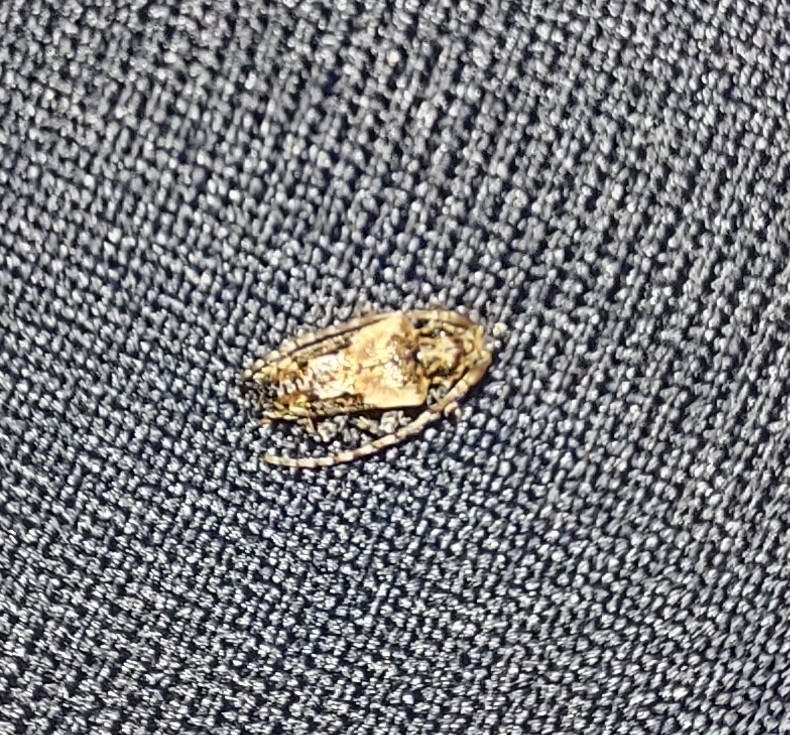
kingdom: Animalia
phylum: Arthropoda
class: Insecta
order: Coleoptera
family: Cerambycidae
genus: Pogonocherus
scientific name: Pogonocherus hispidus
